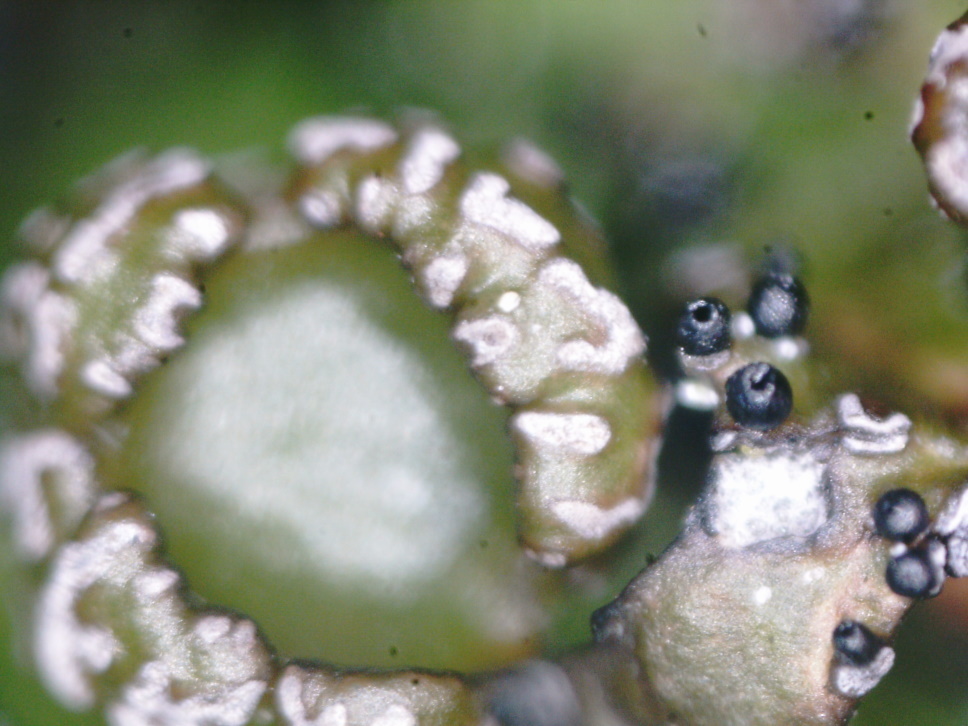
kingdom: Fungi
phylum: Ascomycota
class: Lecanoromycetes
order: Lecanorales
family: Parmeliaceae
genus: Melanelia
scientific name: Melanelia hepatizon
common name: Rimmed camouflage lichen
